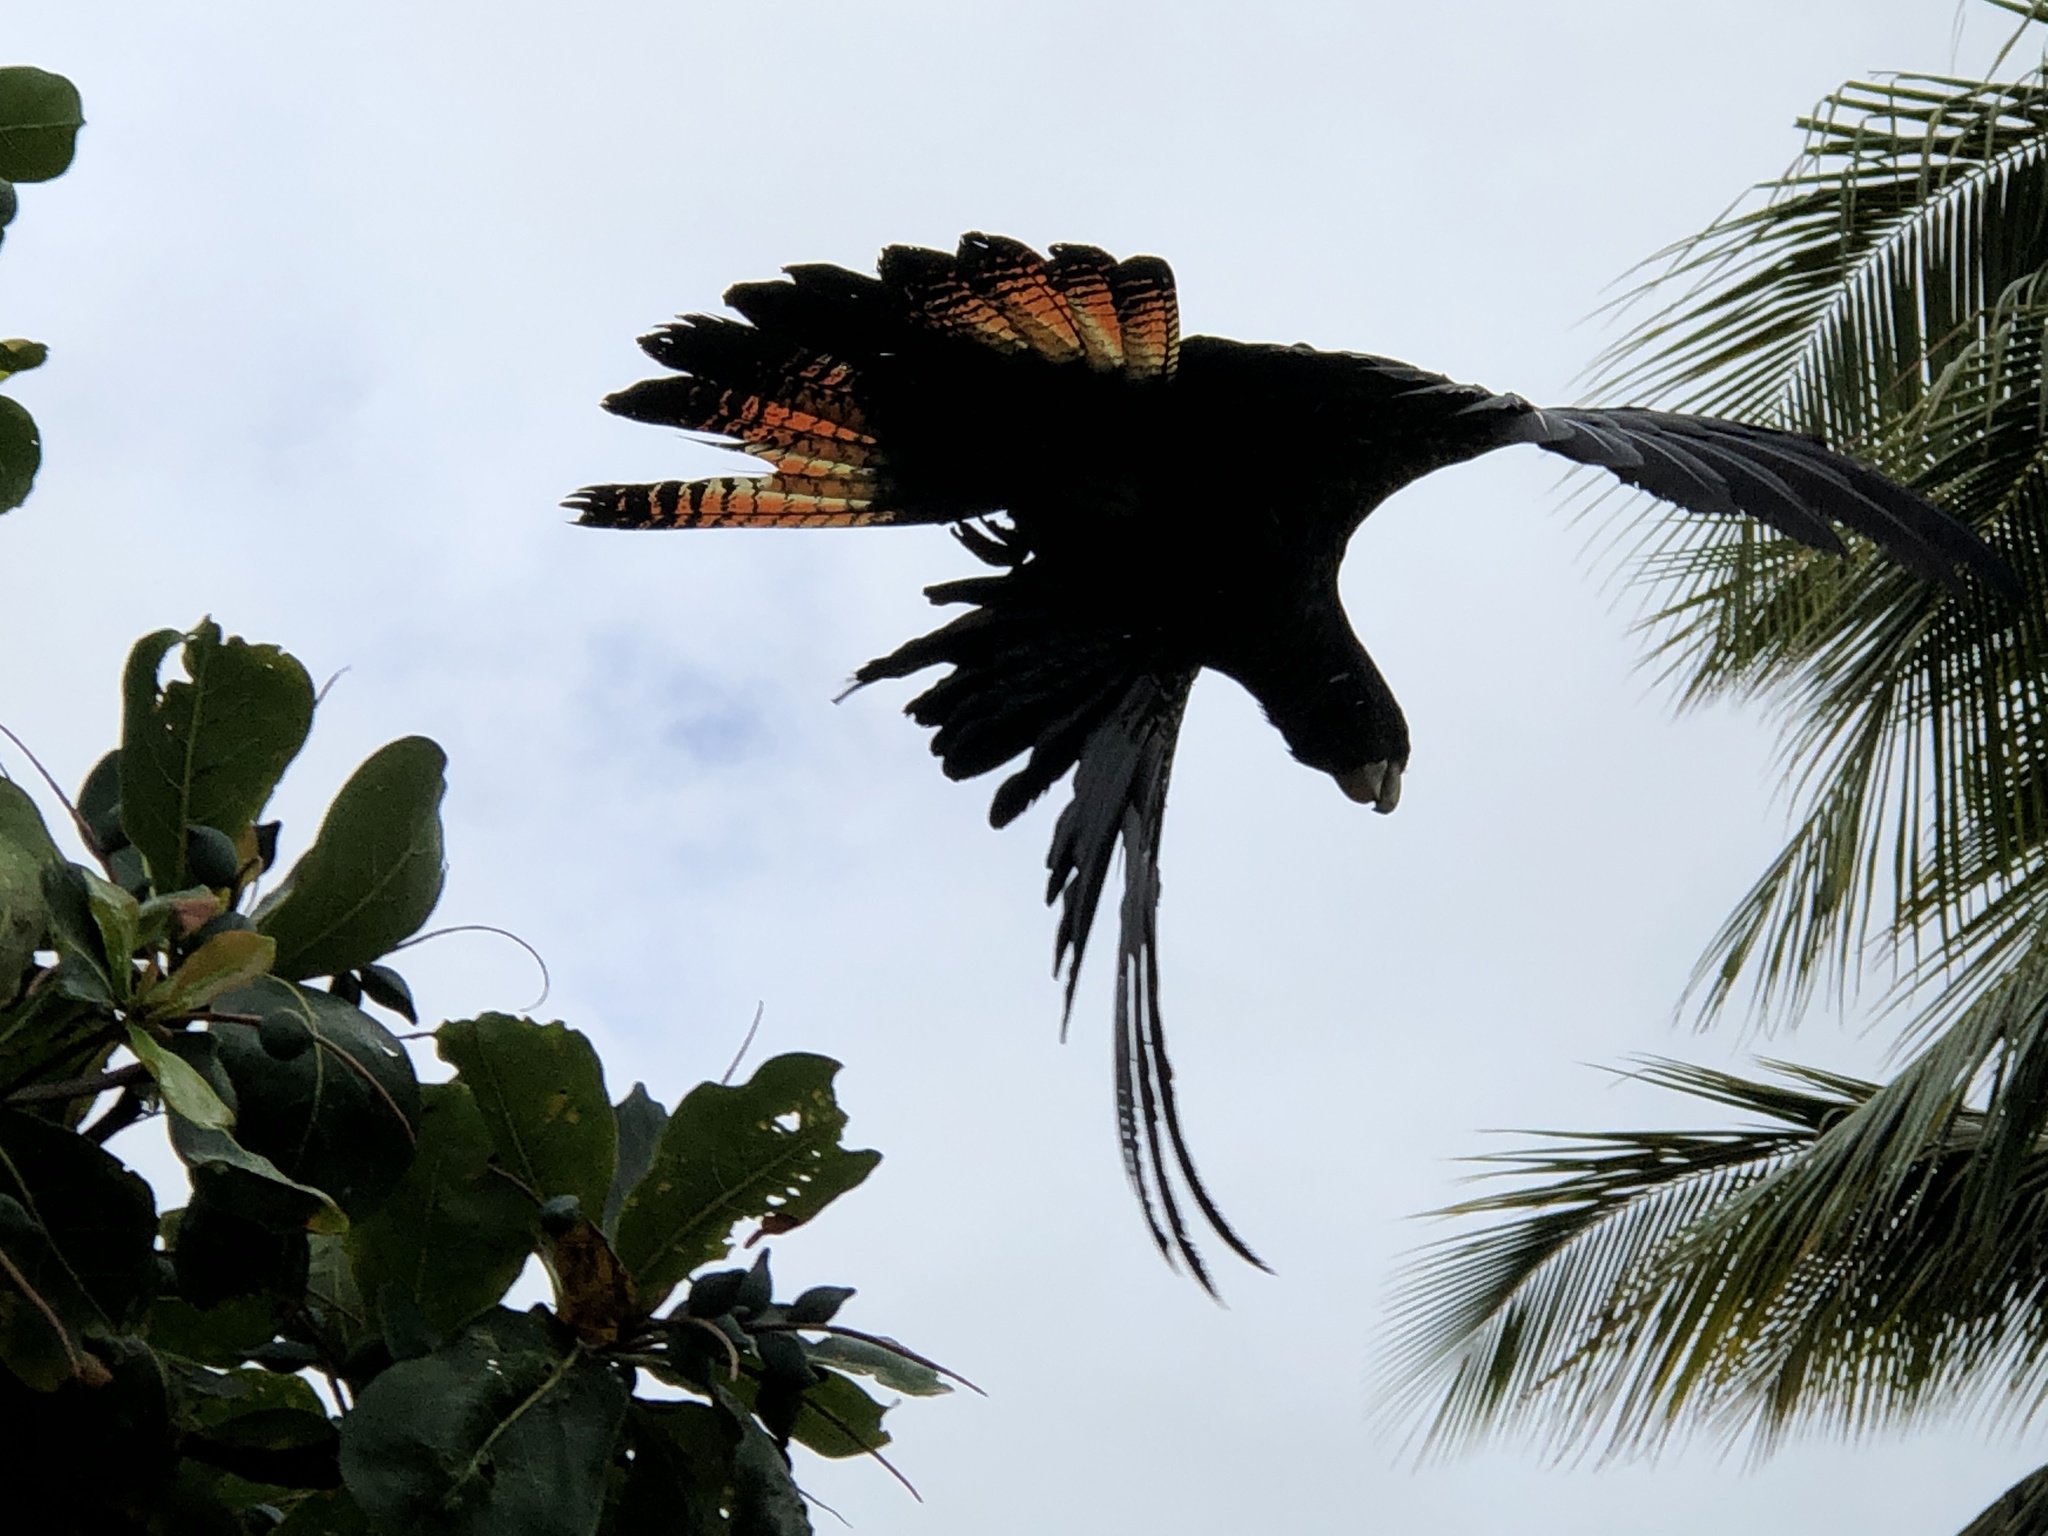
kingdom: Animalia
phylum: Chordata
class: Aves
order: Psittaciformes
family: Psittacidae
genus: Calyptorhynchus
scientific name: Calyptorhynchus banksii
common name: Red-tailed black cockatoo
